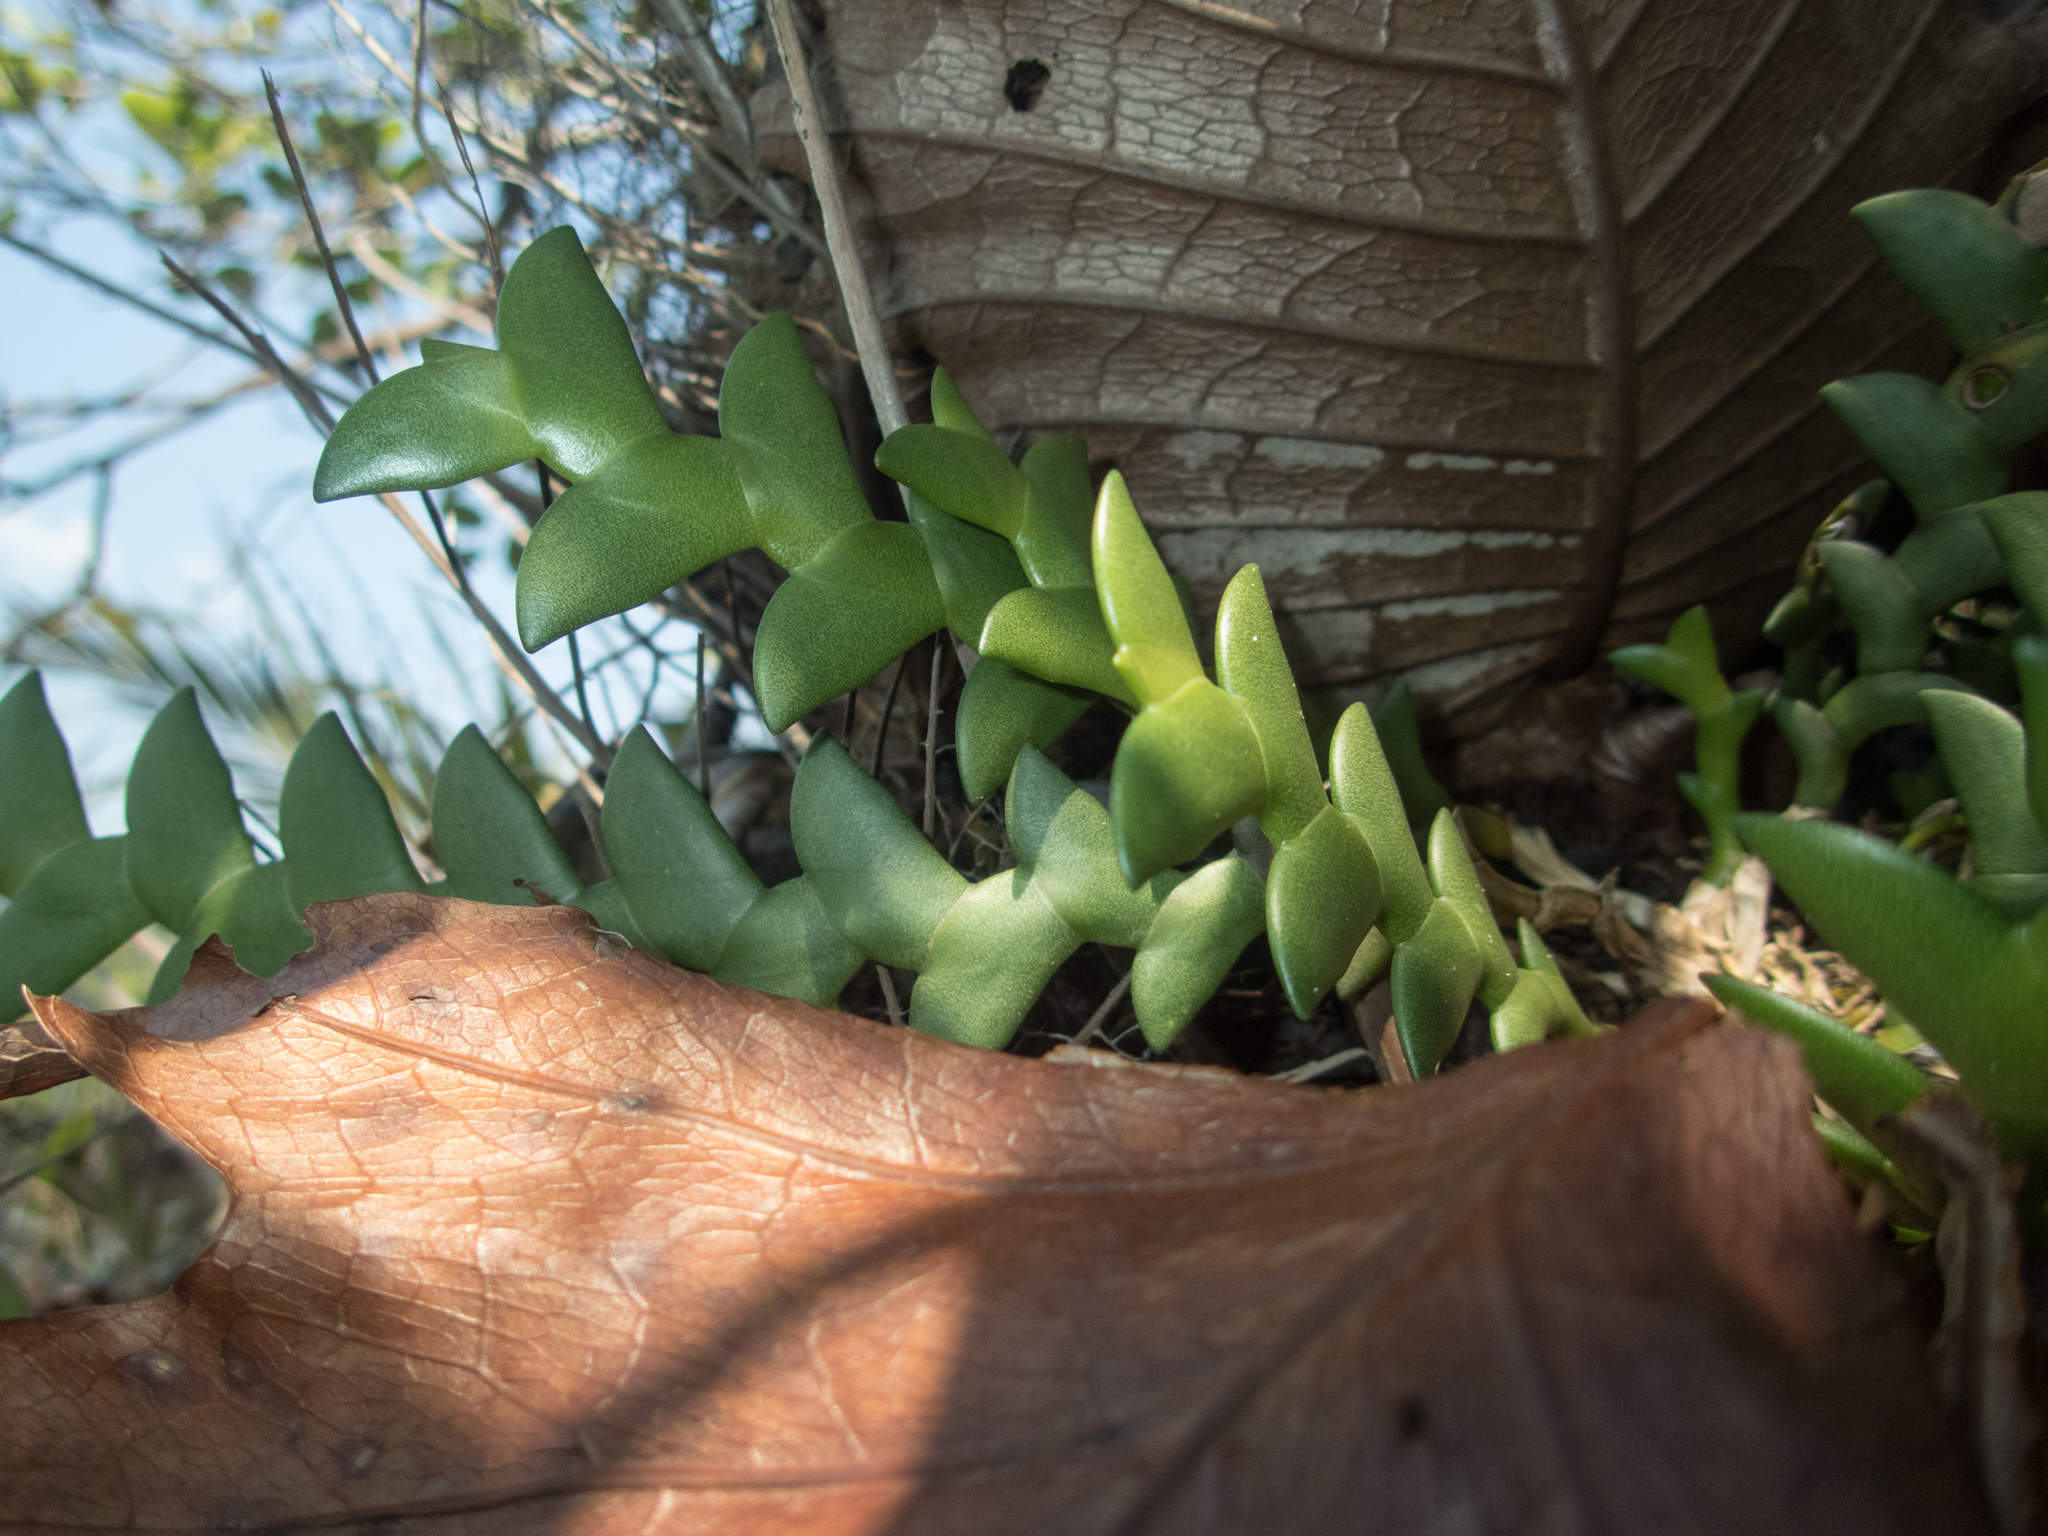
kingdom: Plantae
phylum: Tracheophyta
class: Liliopsida
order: Asparagales
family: Orchidaceae
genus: Dendrobium
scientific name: Dendrobium leonis
